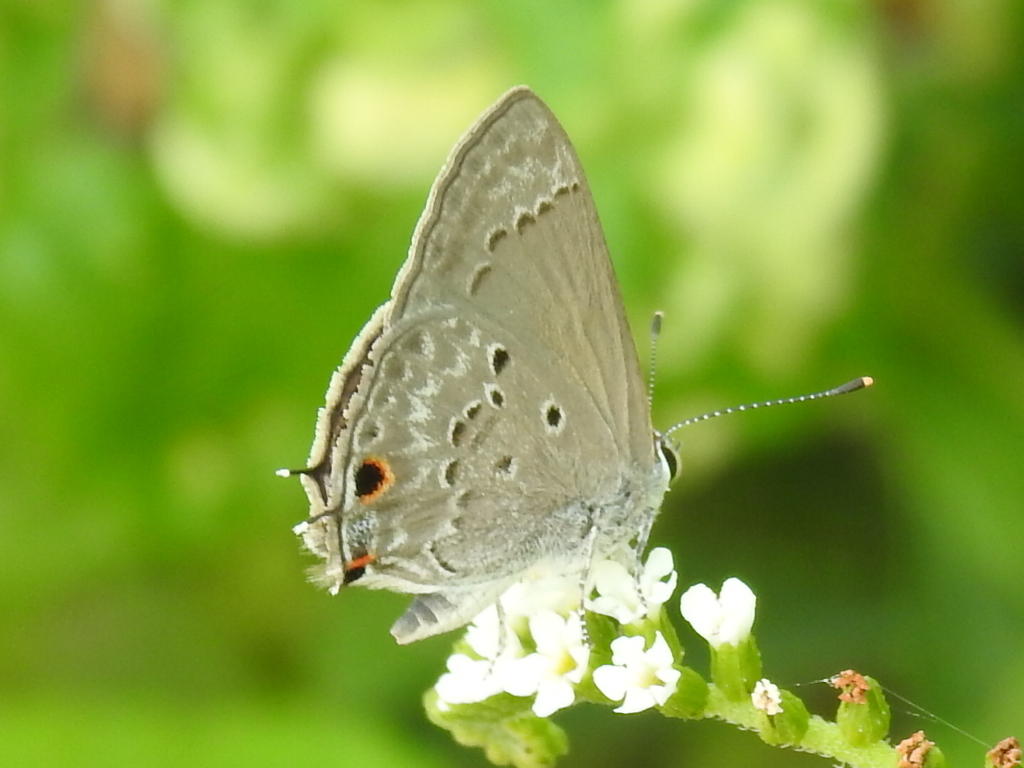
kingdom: Animalia
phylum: Arthropoda
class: Insecta
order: Lepidoptera
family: Lycaenidae
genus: Callicista
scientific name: Callicista columella
